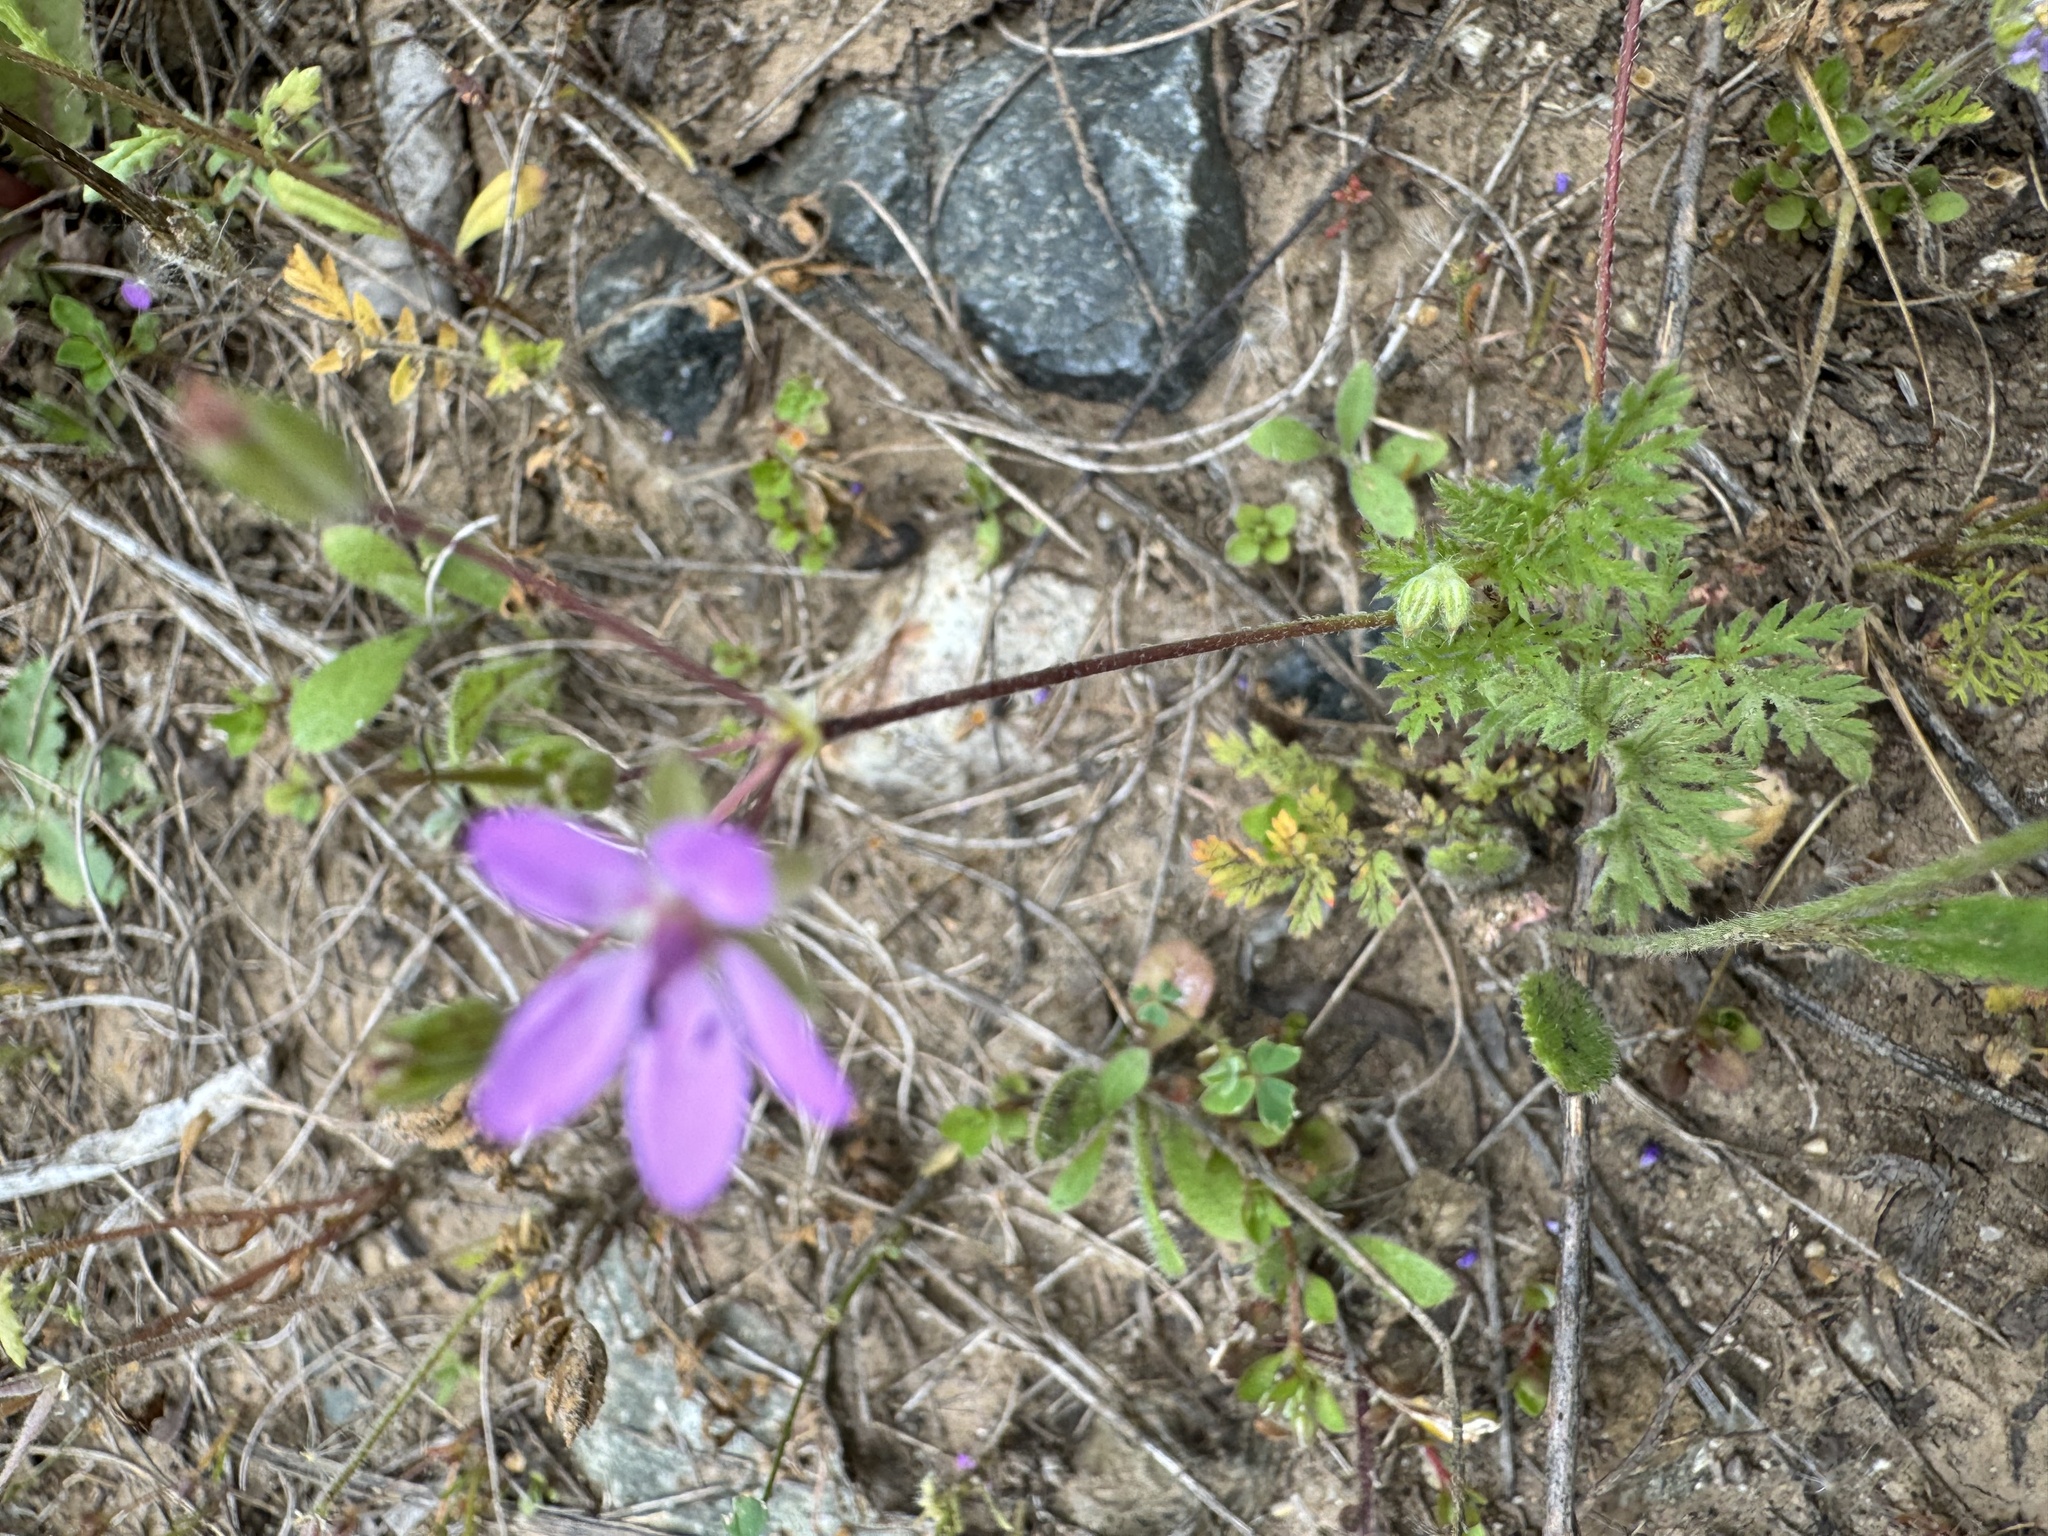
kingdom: Plantae
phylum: Tracheophyta
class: Magnoliopsida
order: Geraniales
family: Geraniaceae
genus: Erodium
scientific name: Erodium cicutarium
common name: Common stork's-bill
